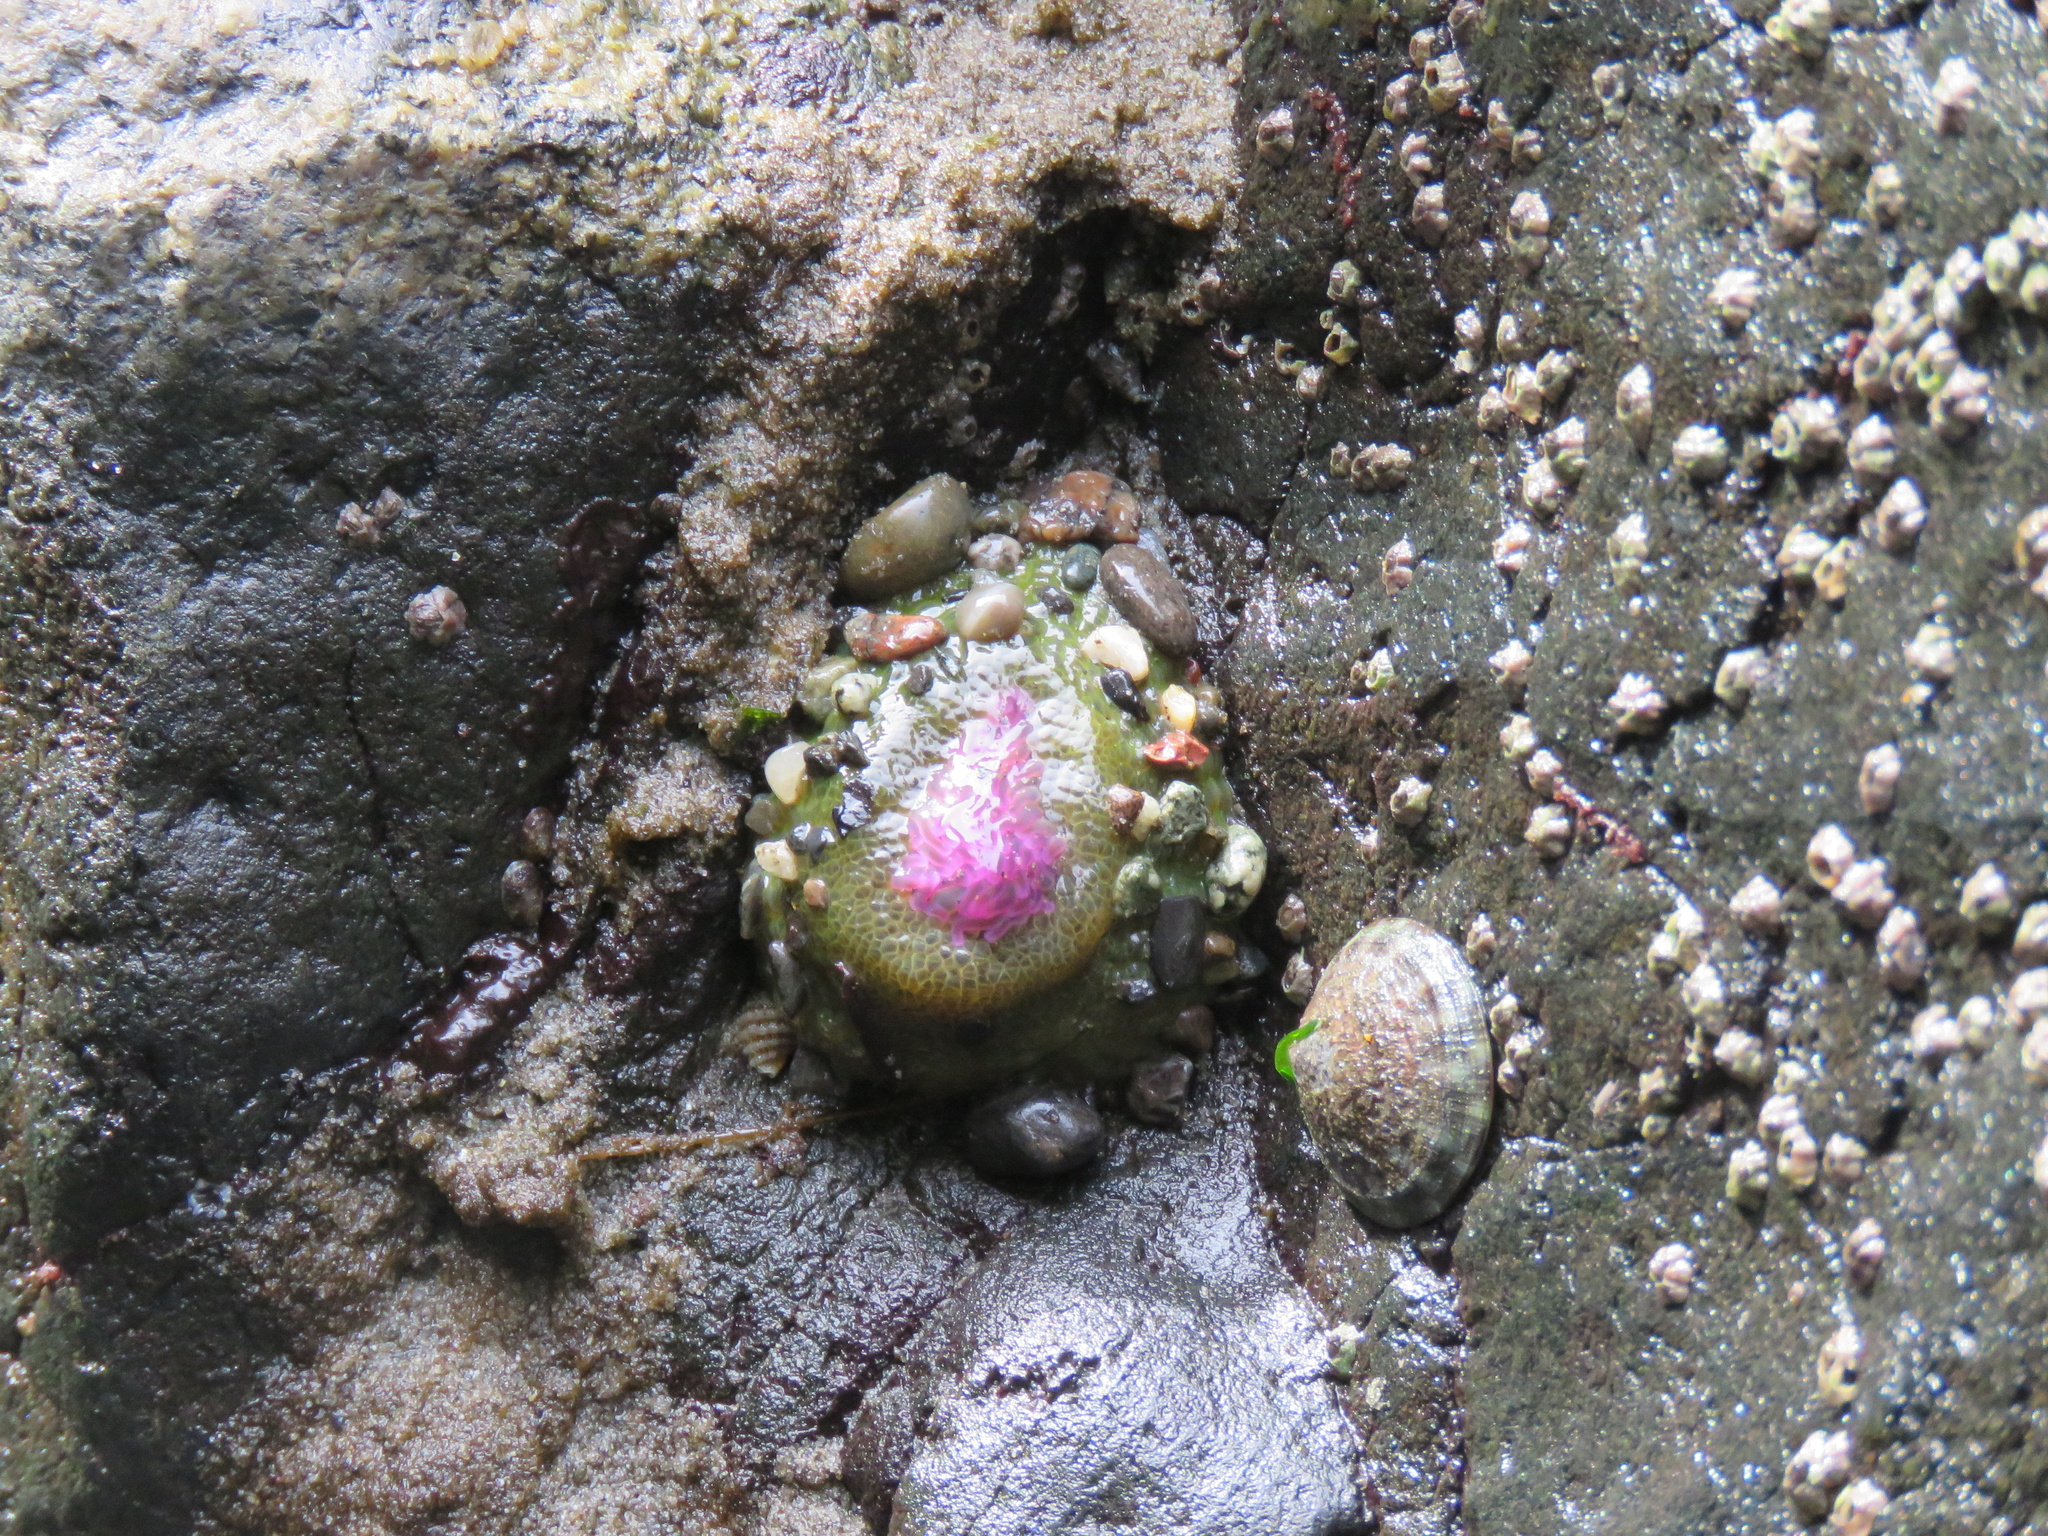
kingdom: Animalia
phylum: Cnidaria
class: Anthozoa
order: Actiniaria
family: Actiniidae
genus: Anthopleura
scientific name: Anthopleura elegantissima
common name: Clonal anemone
